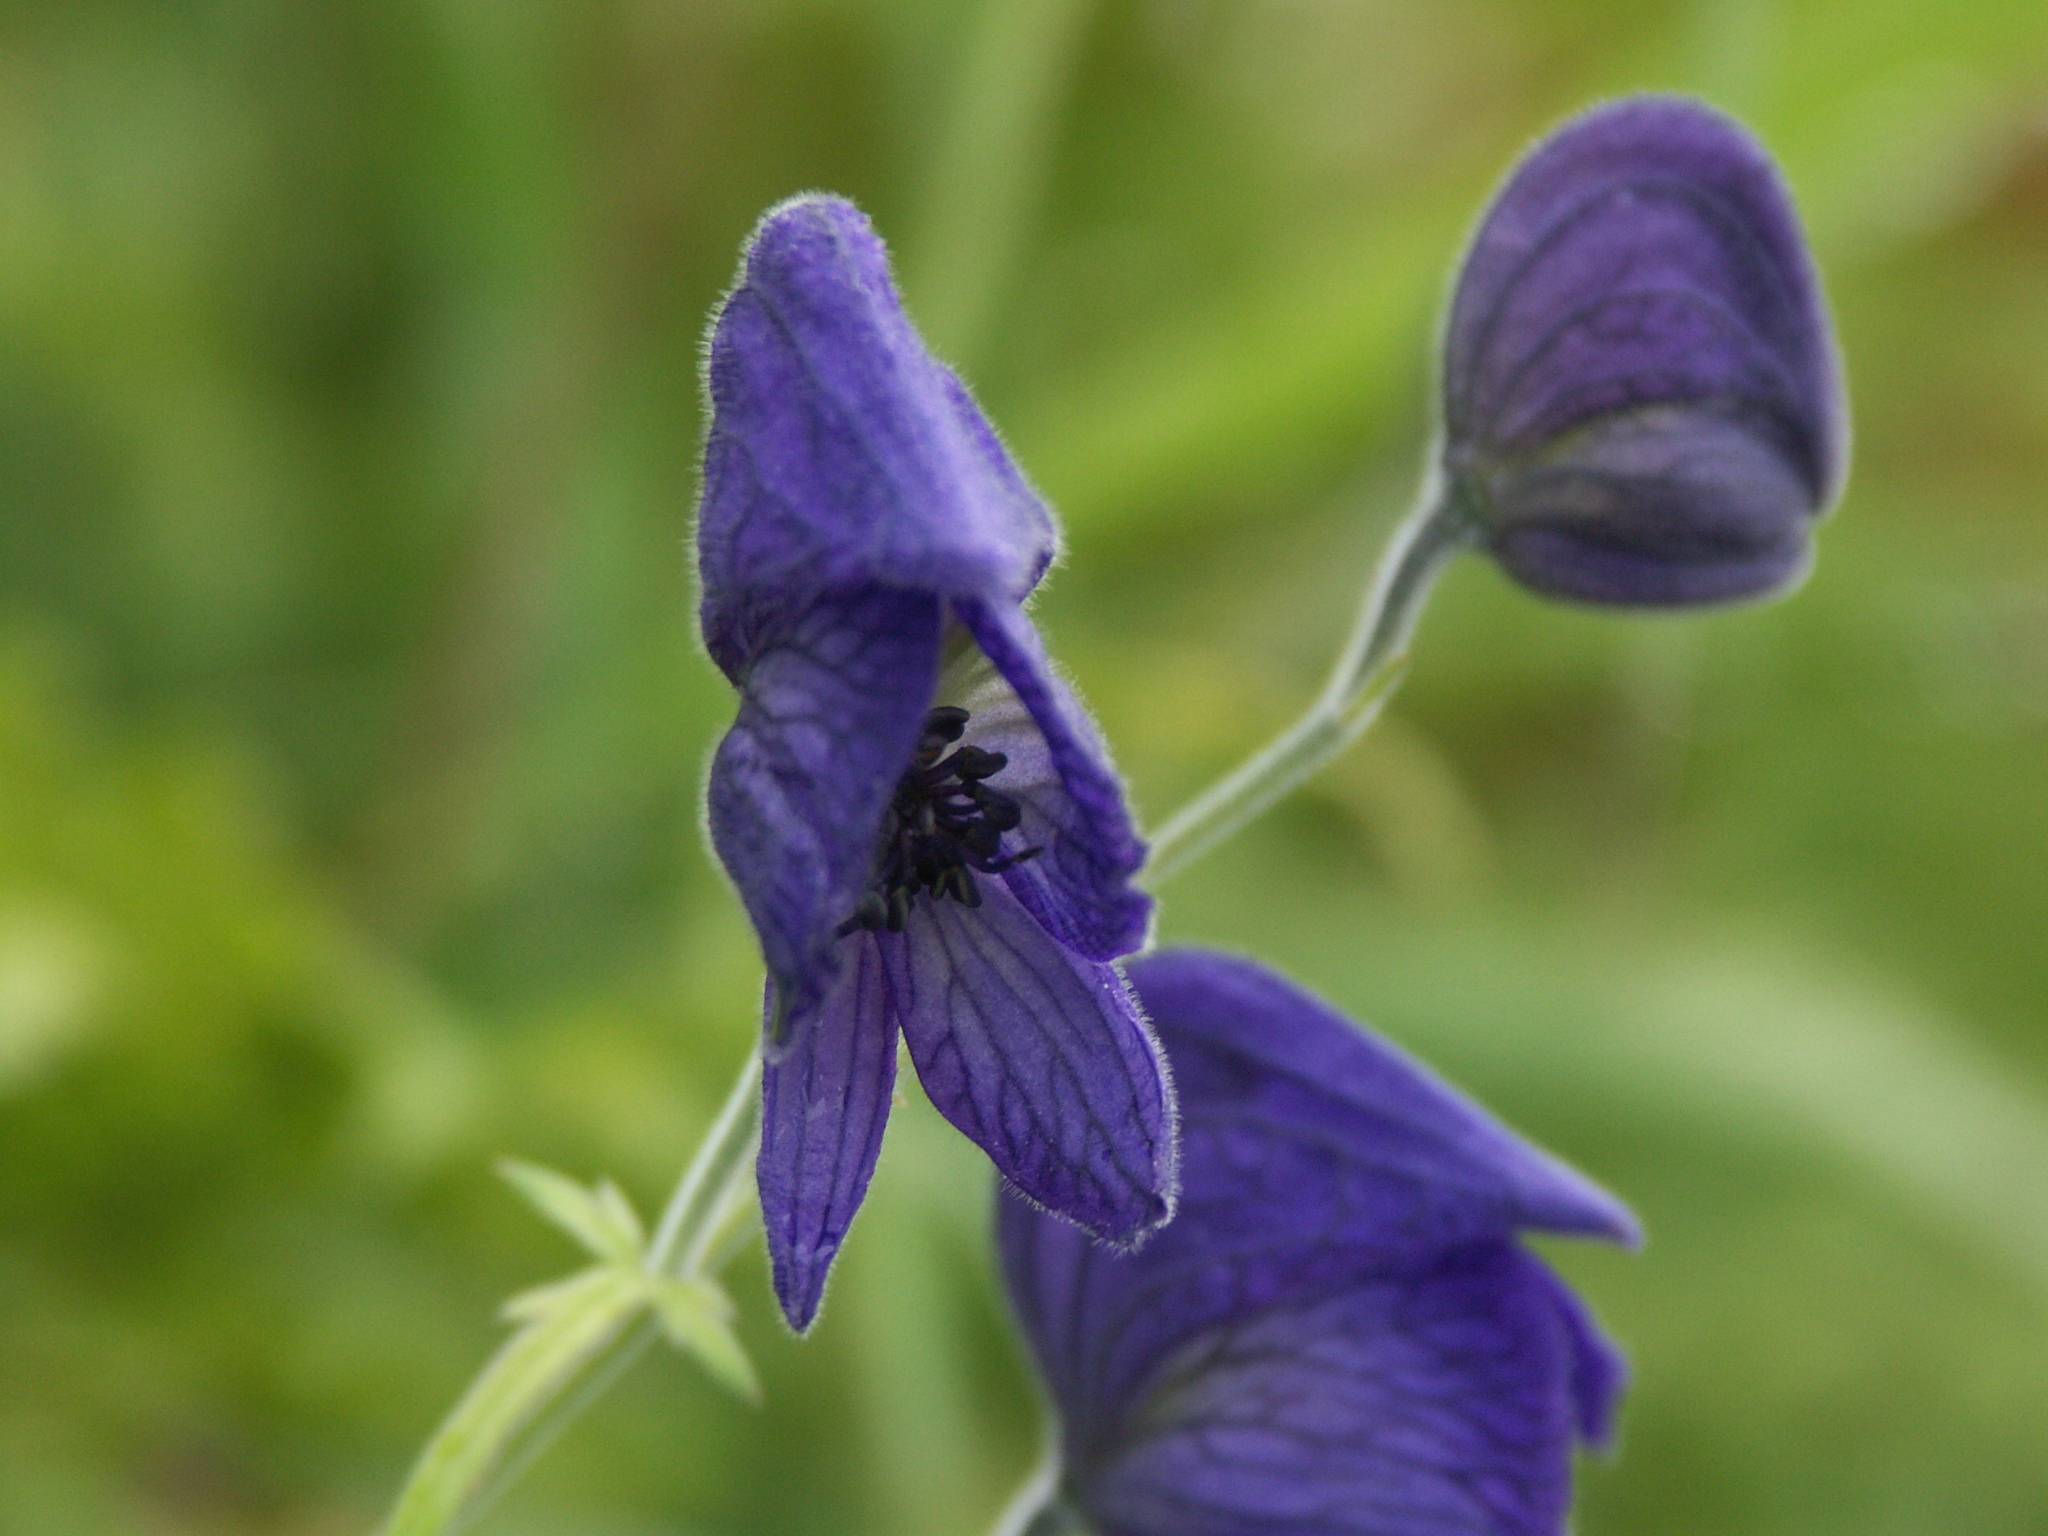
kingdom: Plantae
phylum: Tracheophyta
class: Magnoliopsida
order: Ranunculales
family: Ranunculaceae
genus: Aconitum
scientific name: Aconitum delphiniifolium
